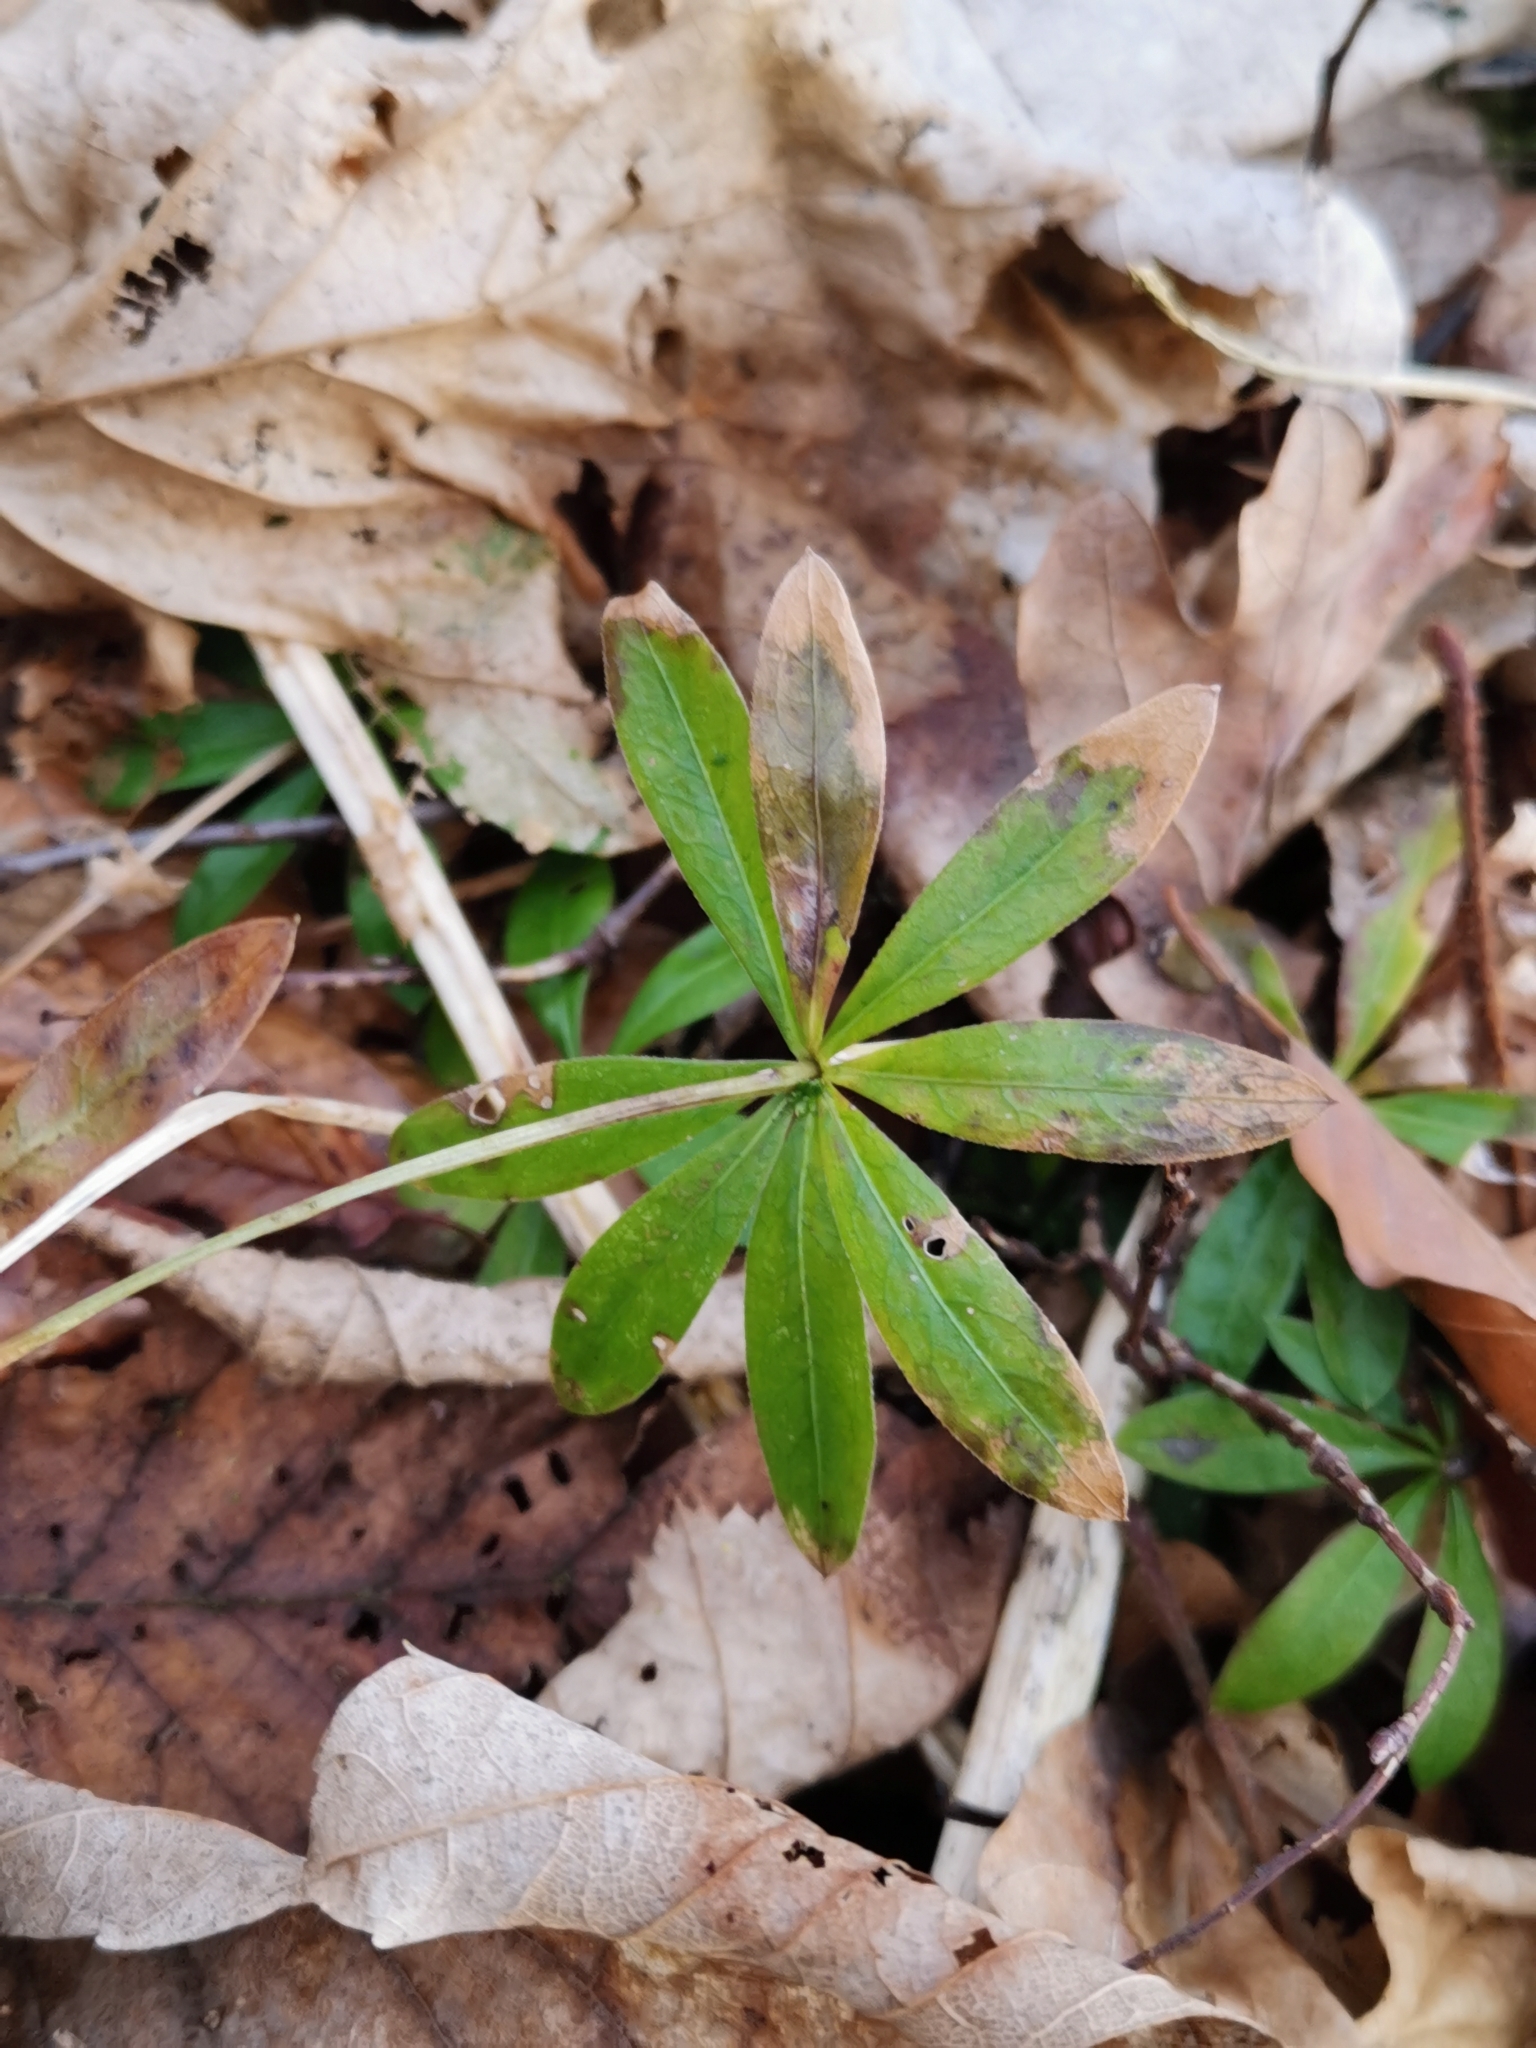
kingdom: Plantae
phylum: Tracheophyta
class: Magnoliopsida
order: Gentianales
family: Rubiaceae
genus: Galium
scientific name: Galium odoratum
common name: Sweet woodruff
